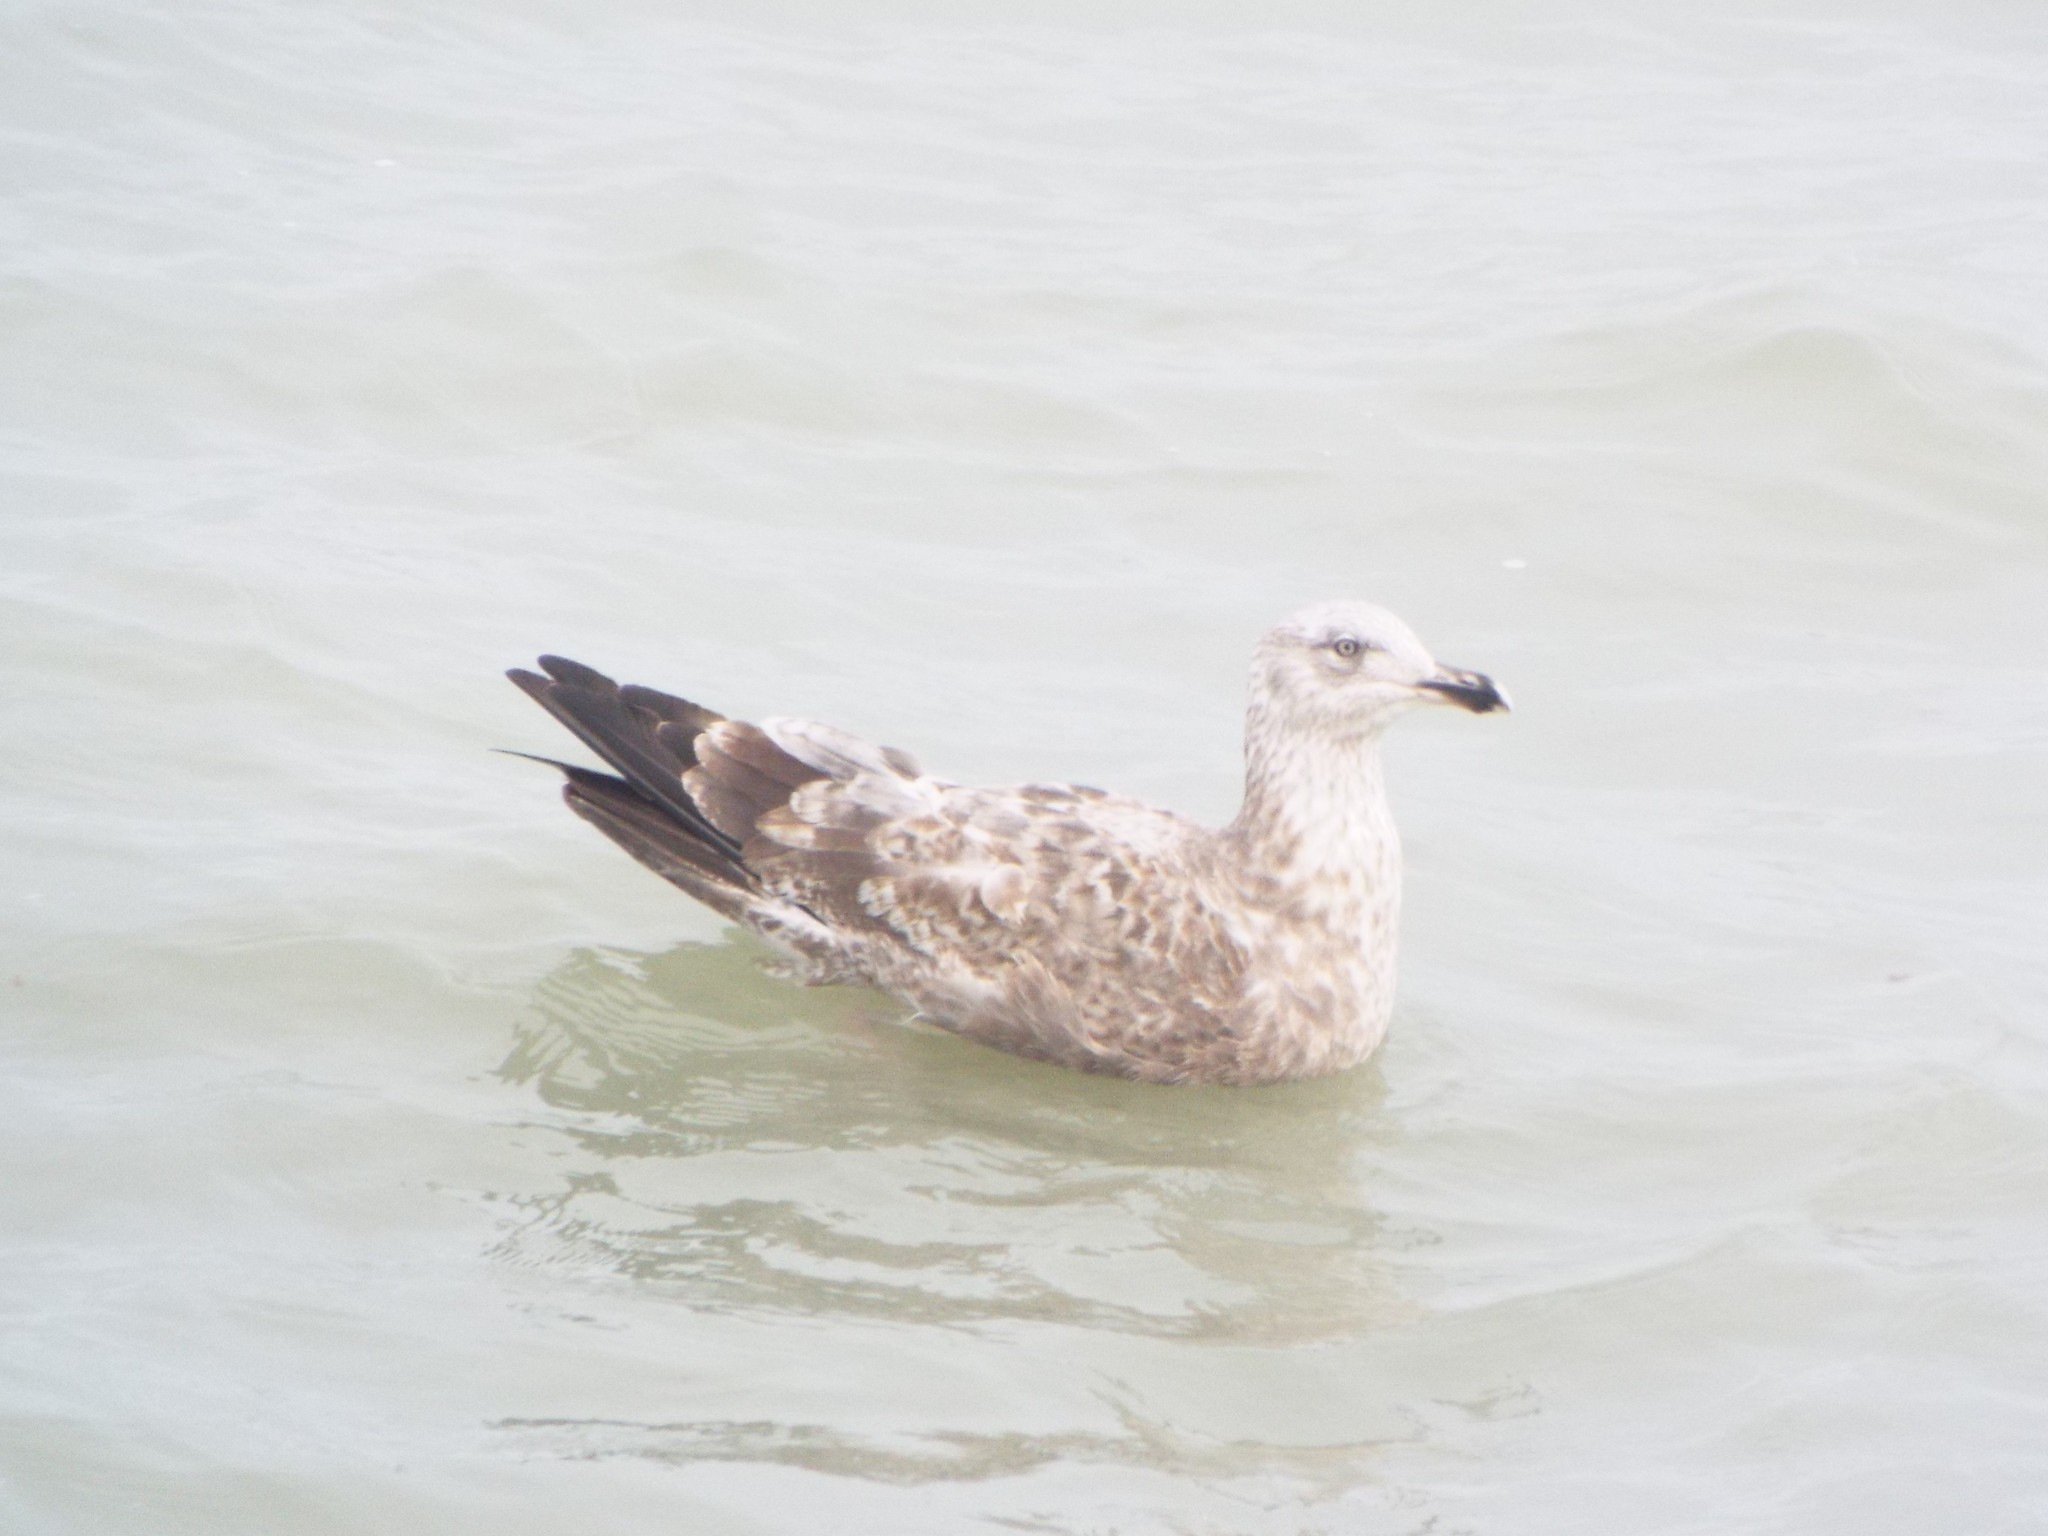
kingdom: Animalia
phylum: Chordata
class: Aves
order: Charadriiformes
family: Laridae
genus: Larus
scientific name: Larus argentatus
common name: Herring gull
